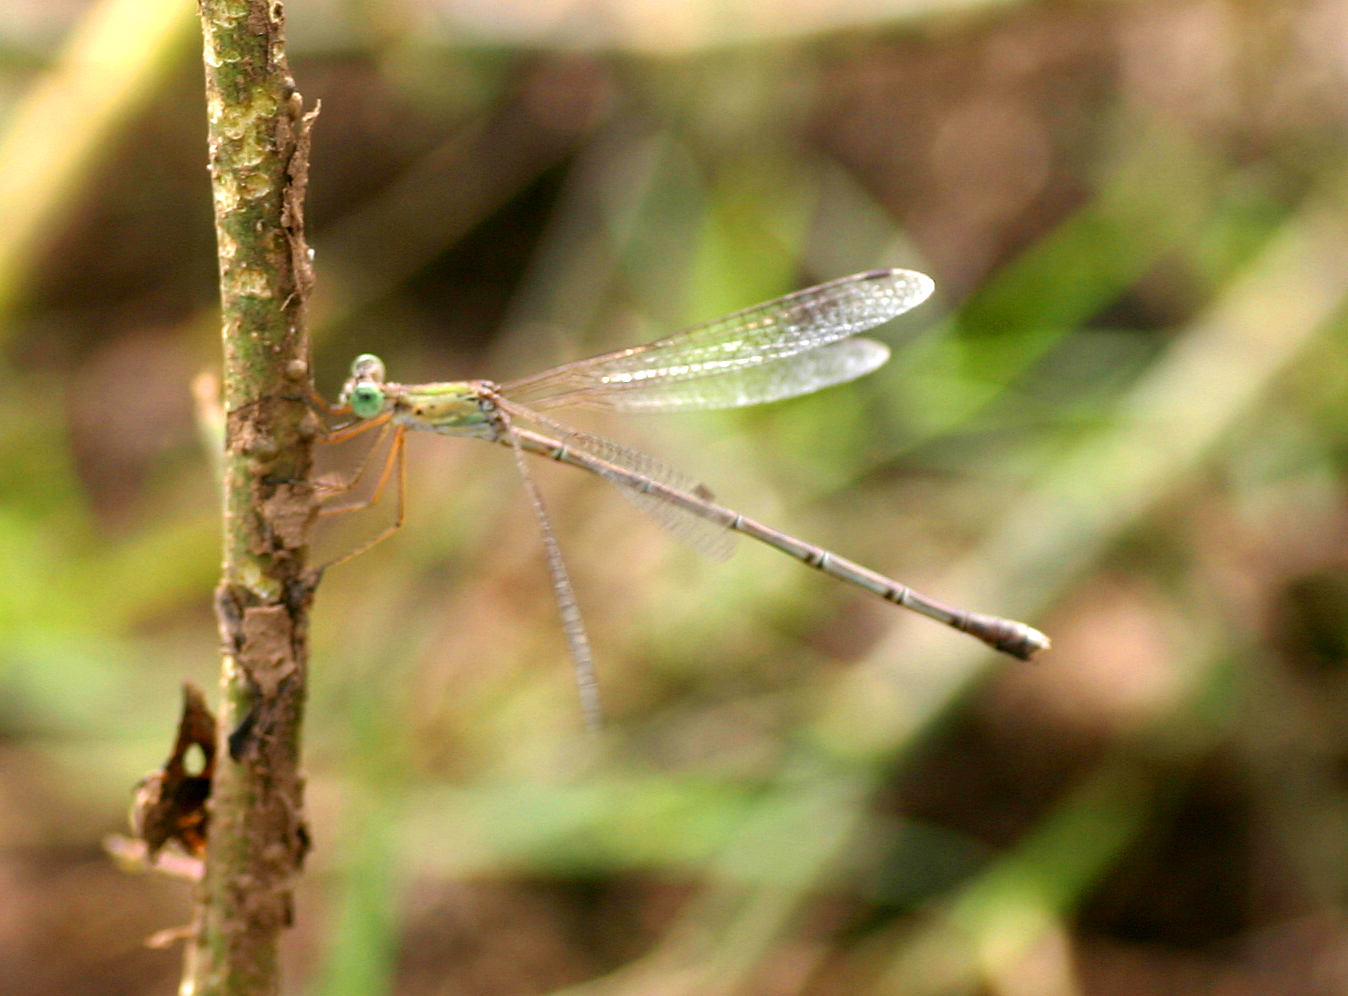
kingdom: Animalia
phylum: Arthropoda
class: Insecta
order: Odonata
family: Lestidae
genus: Lestes
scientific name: Lestes elatus
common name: Emerald spreadwing
